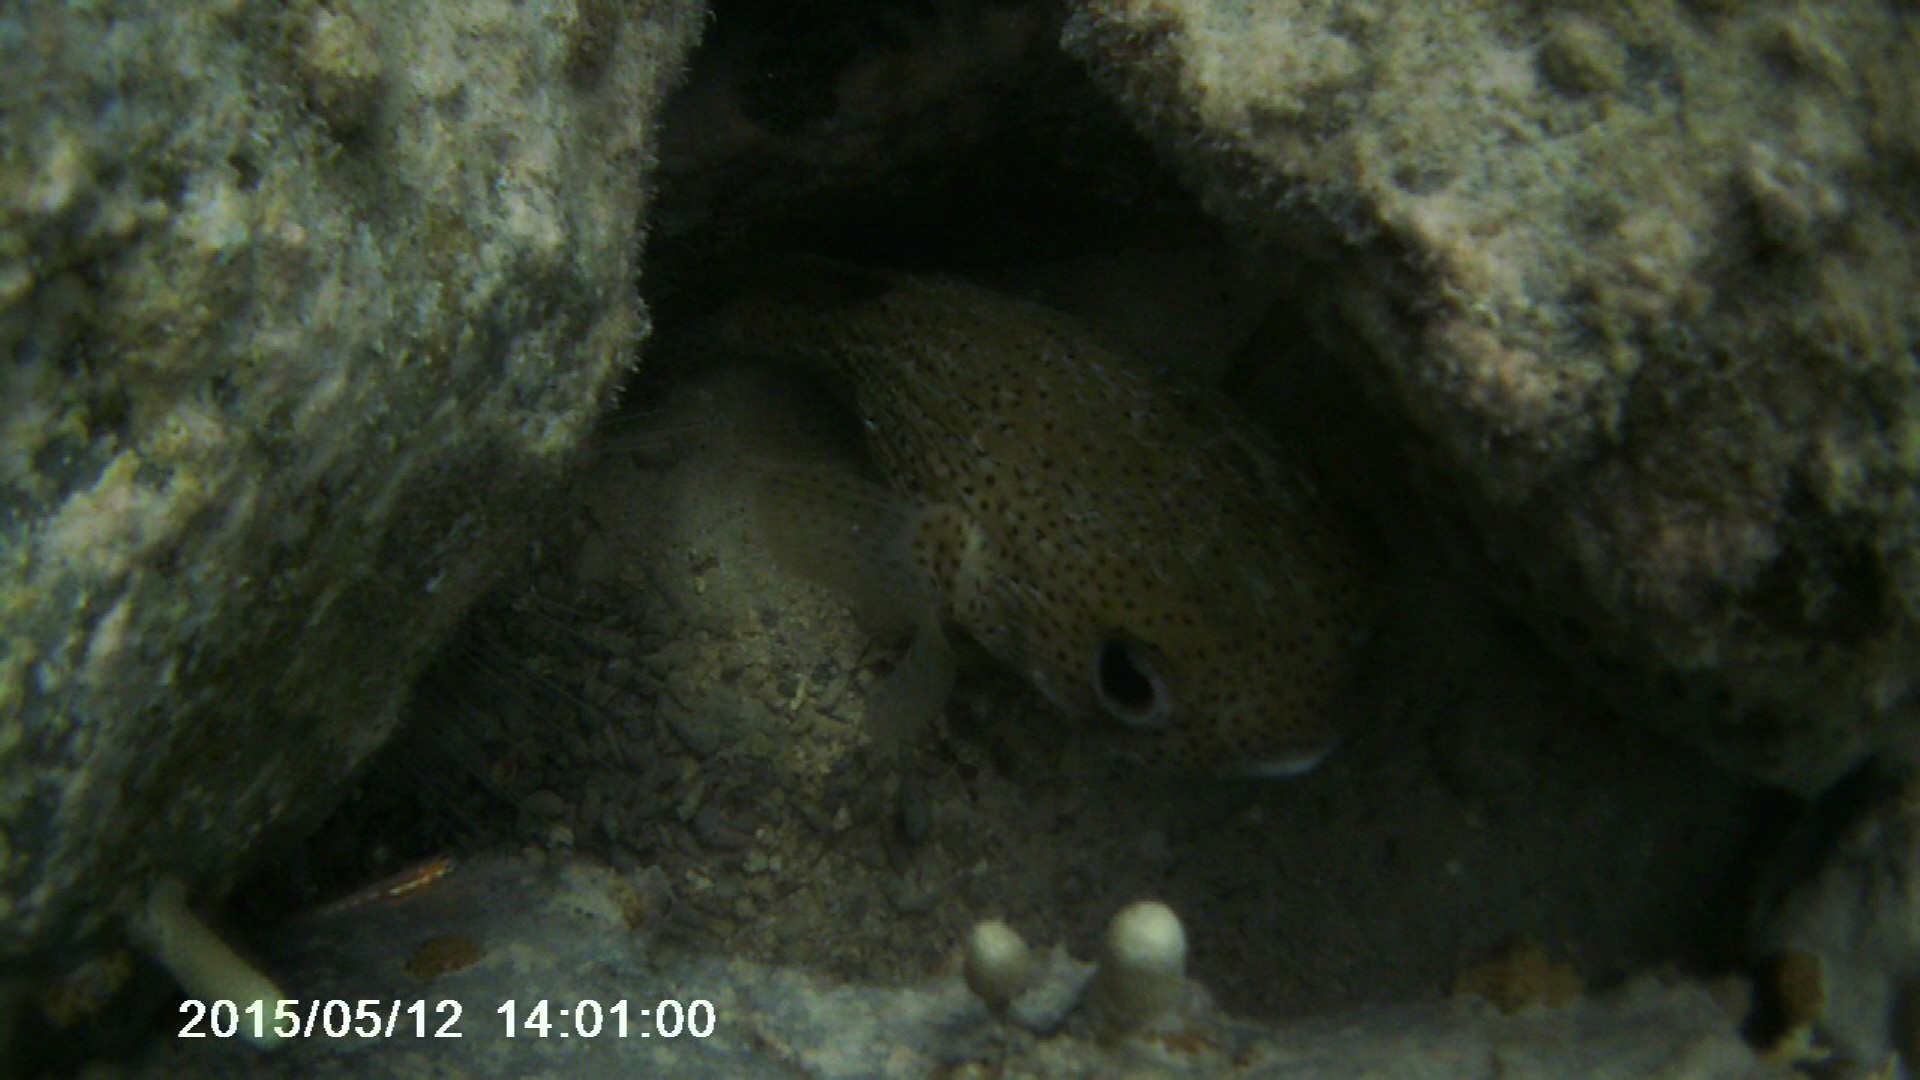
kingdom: Animalia
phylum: Chordata
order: Tetraodontiformes
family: Diodontidae
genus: Diodon
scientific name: Diodon hystrix
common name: Giant porcupinefish
